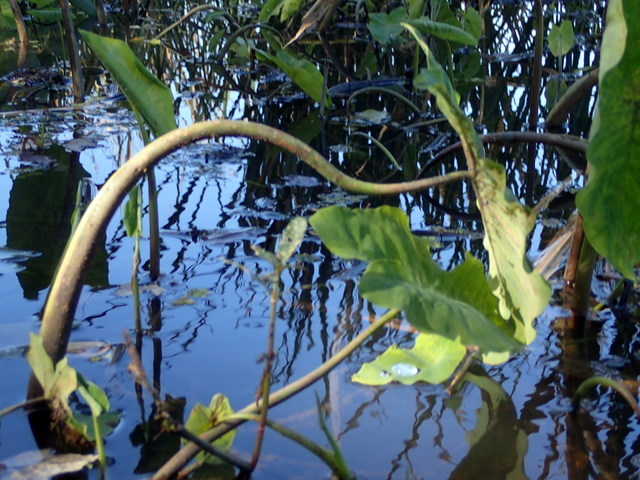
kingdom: Animalia
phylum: Arthropoda
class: Insecta
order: Hemiptera
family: Delphacidae
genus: Tarophagus
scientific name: Tarophagus colocasiae
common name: Taro planthopper
